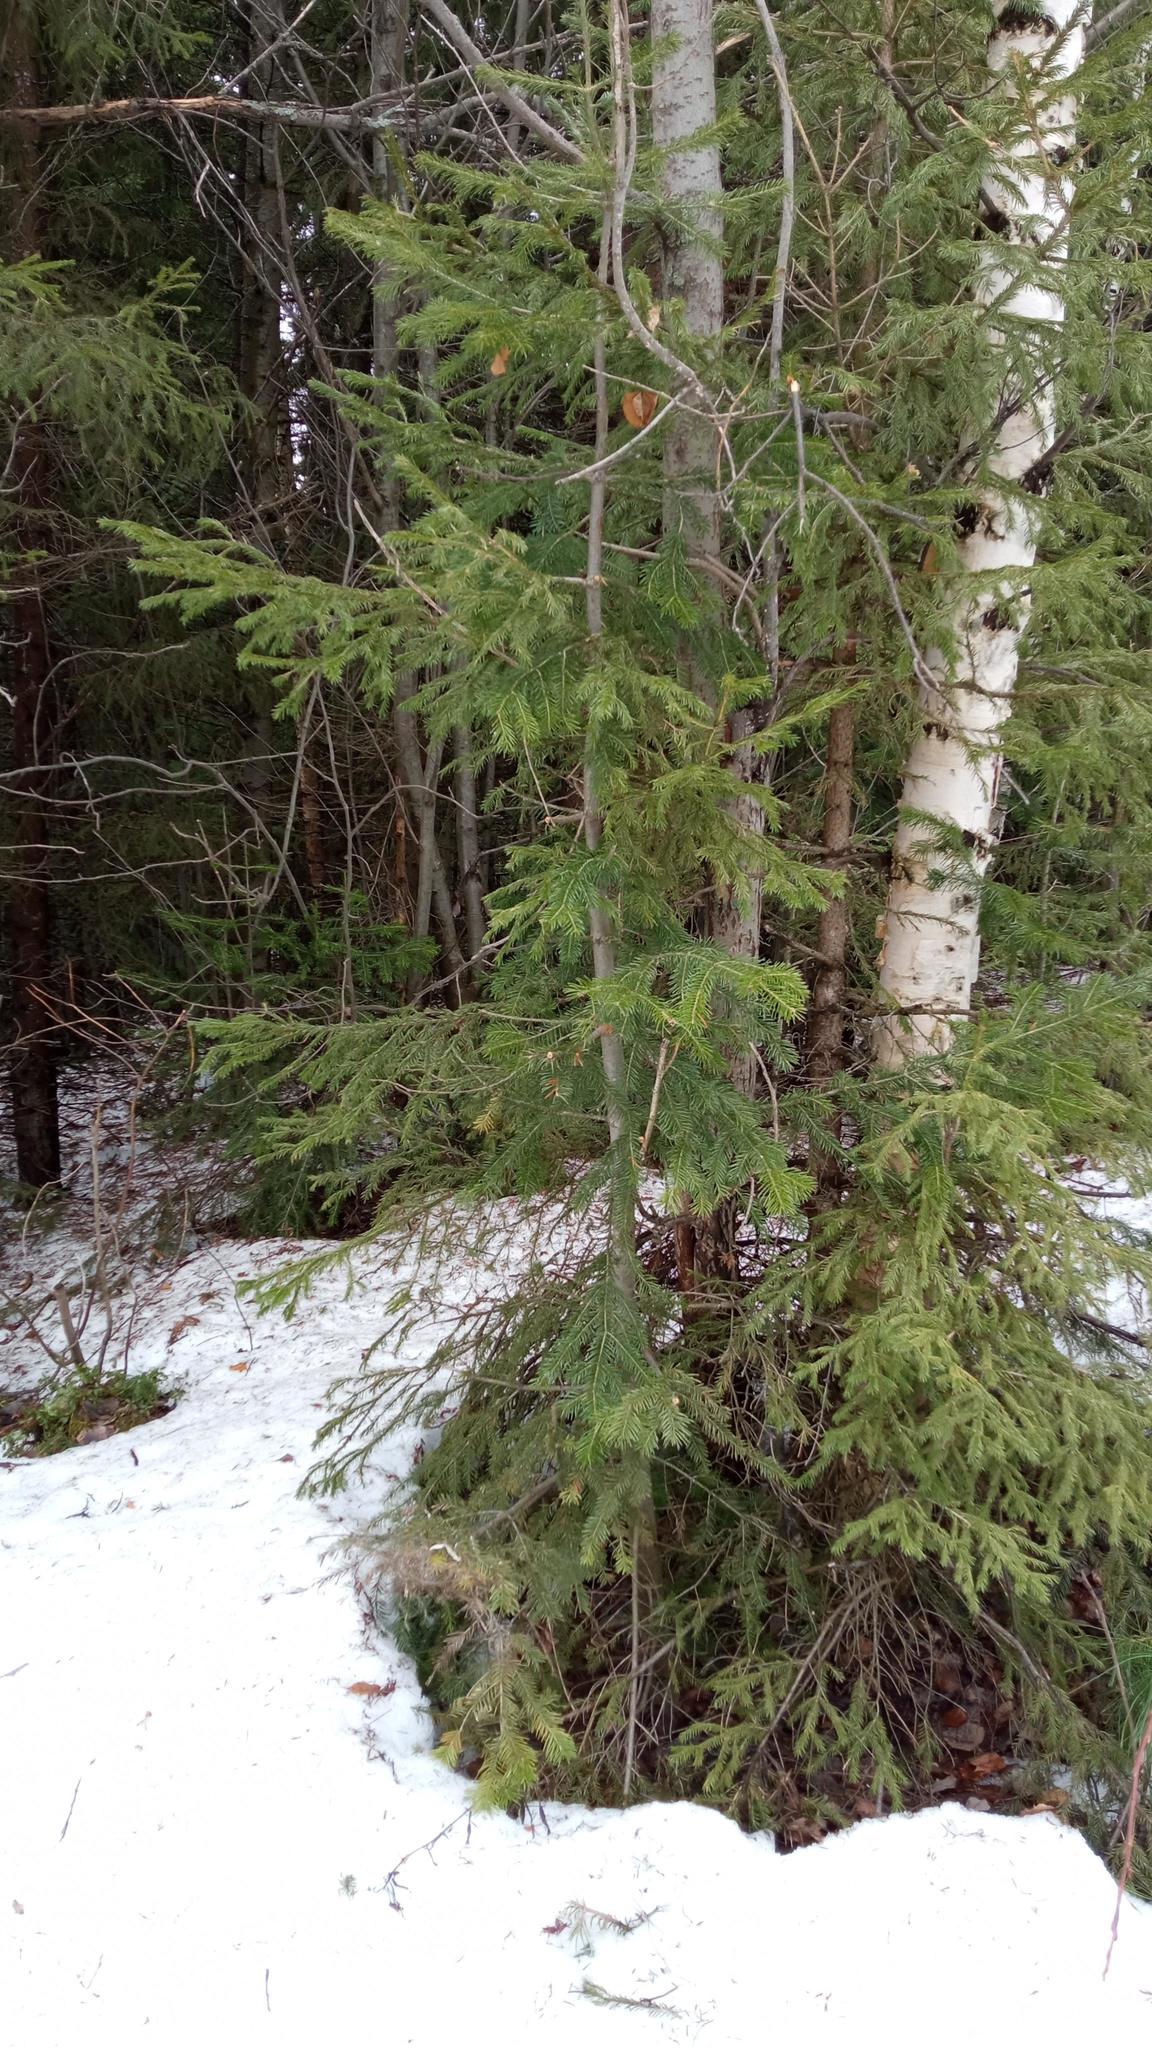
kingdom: Plantae
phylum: Tracheophyta
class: Pinopsida
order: Pinales
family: Pinaceae
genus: Abies
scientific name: Abies sibirica
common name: Siberian fir
